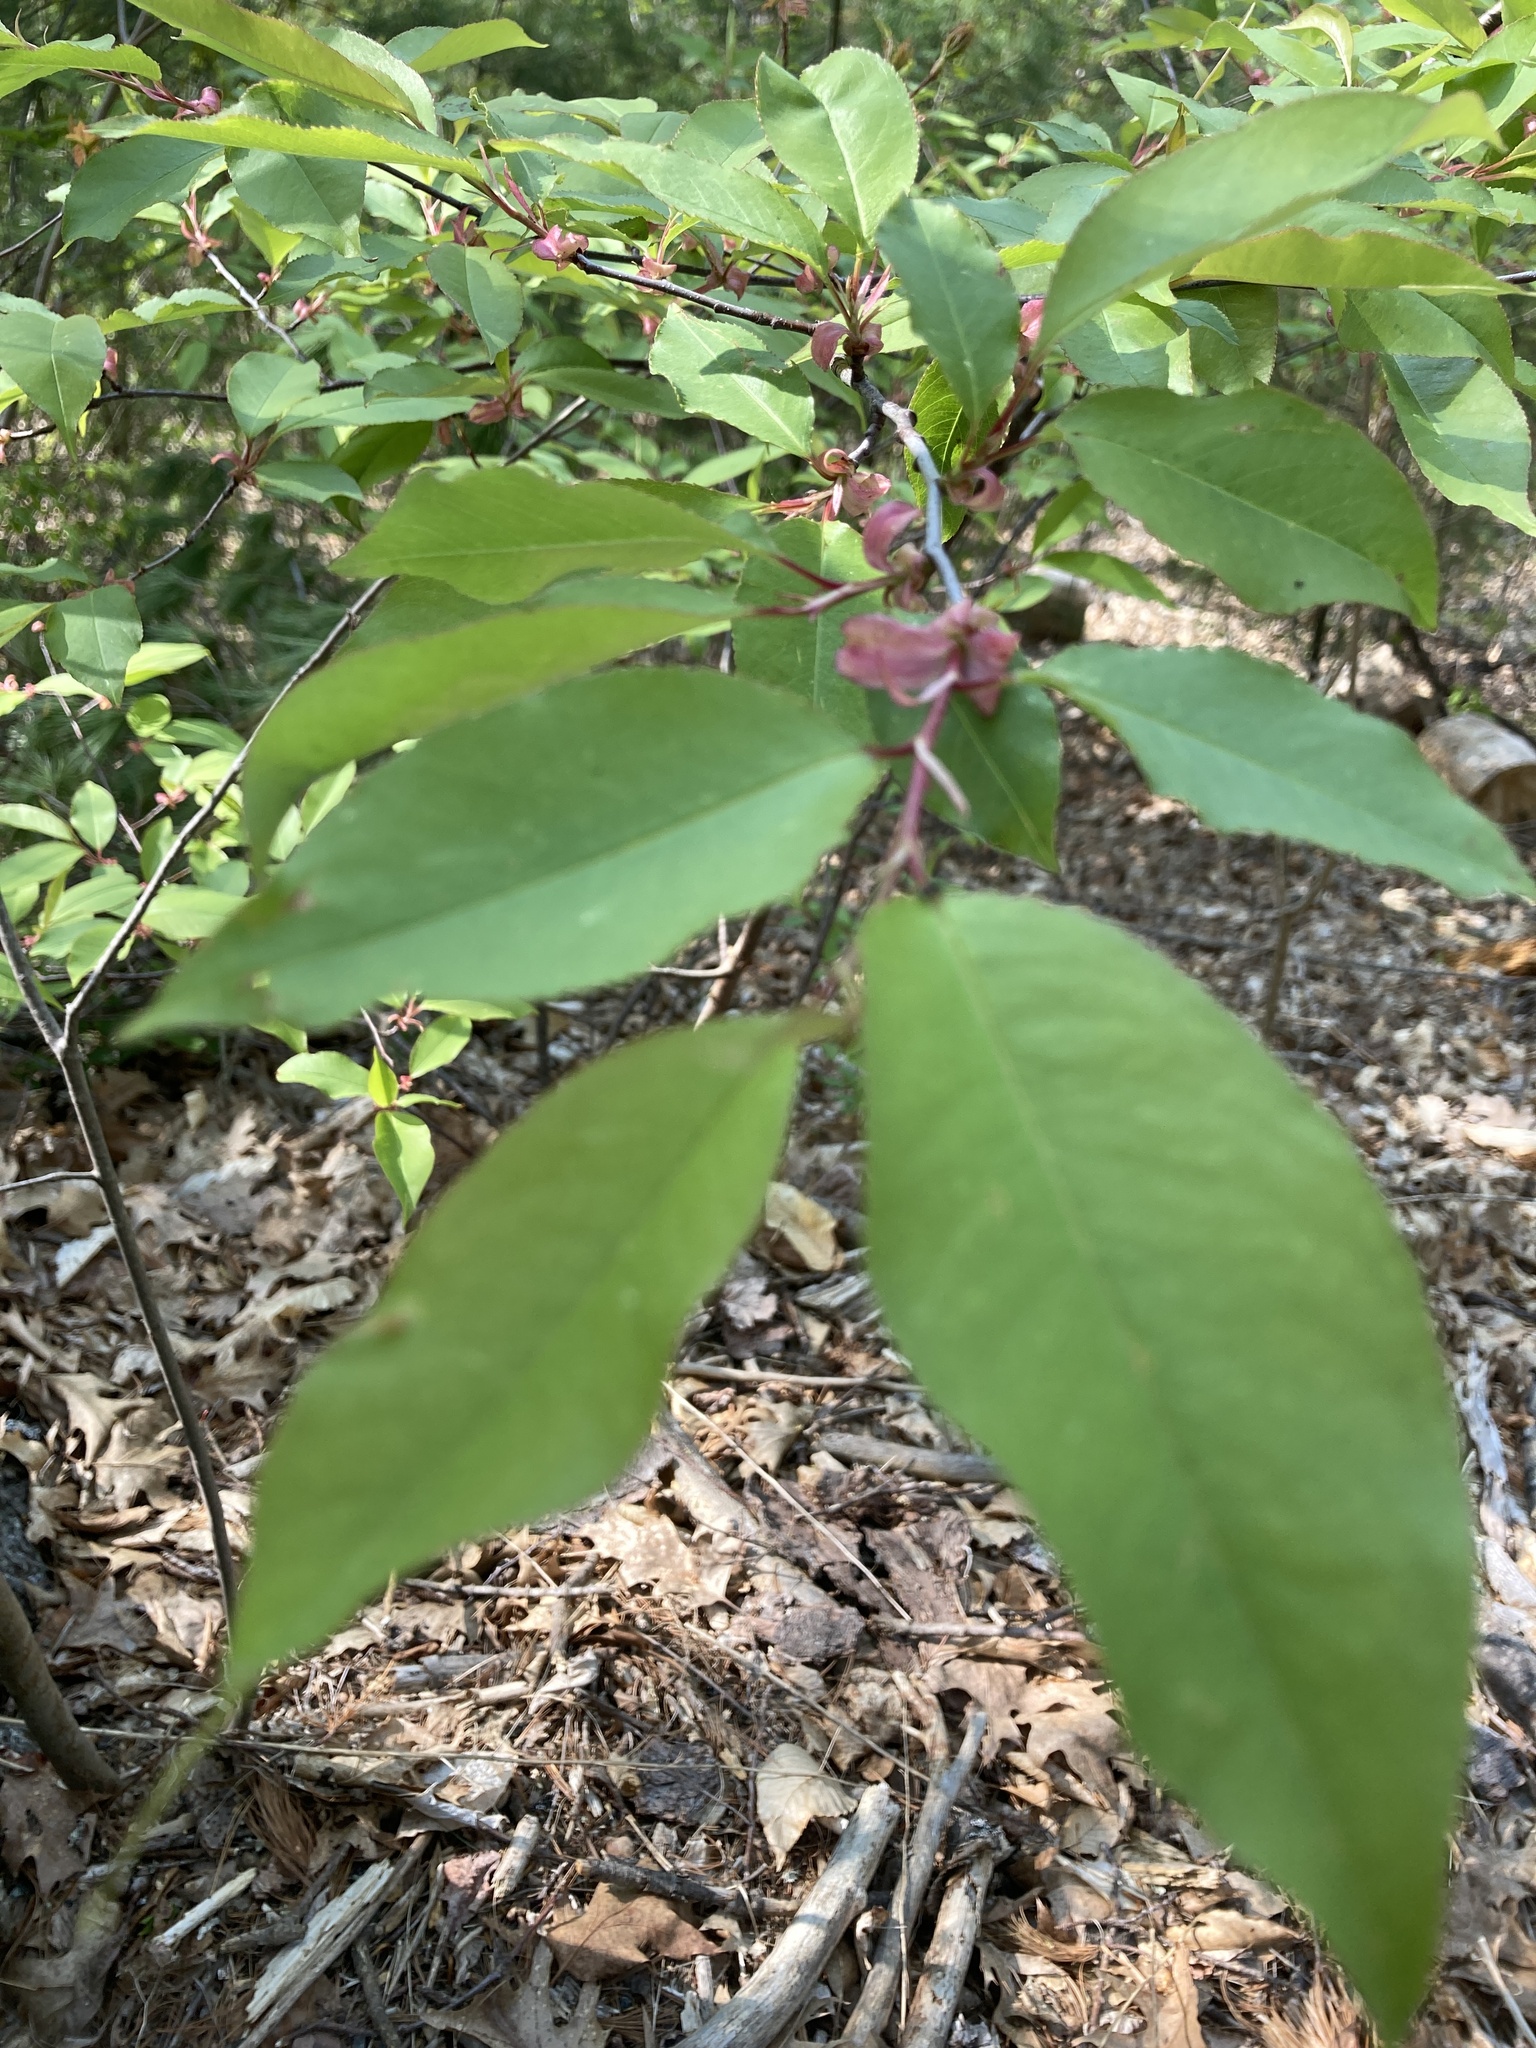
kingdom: Plantae
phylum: Tracheophyta
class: Magnoliopsida
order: Rosales
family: Rosaceae
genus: Prunus
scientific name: Prunus serotina
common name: Black cherry
